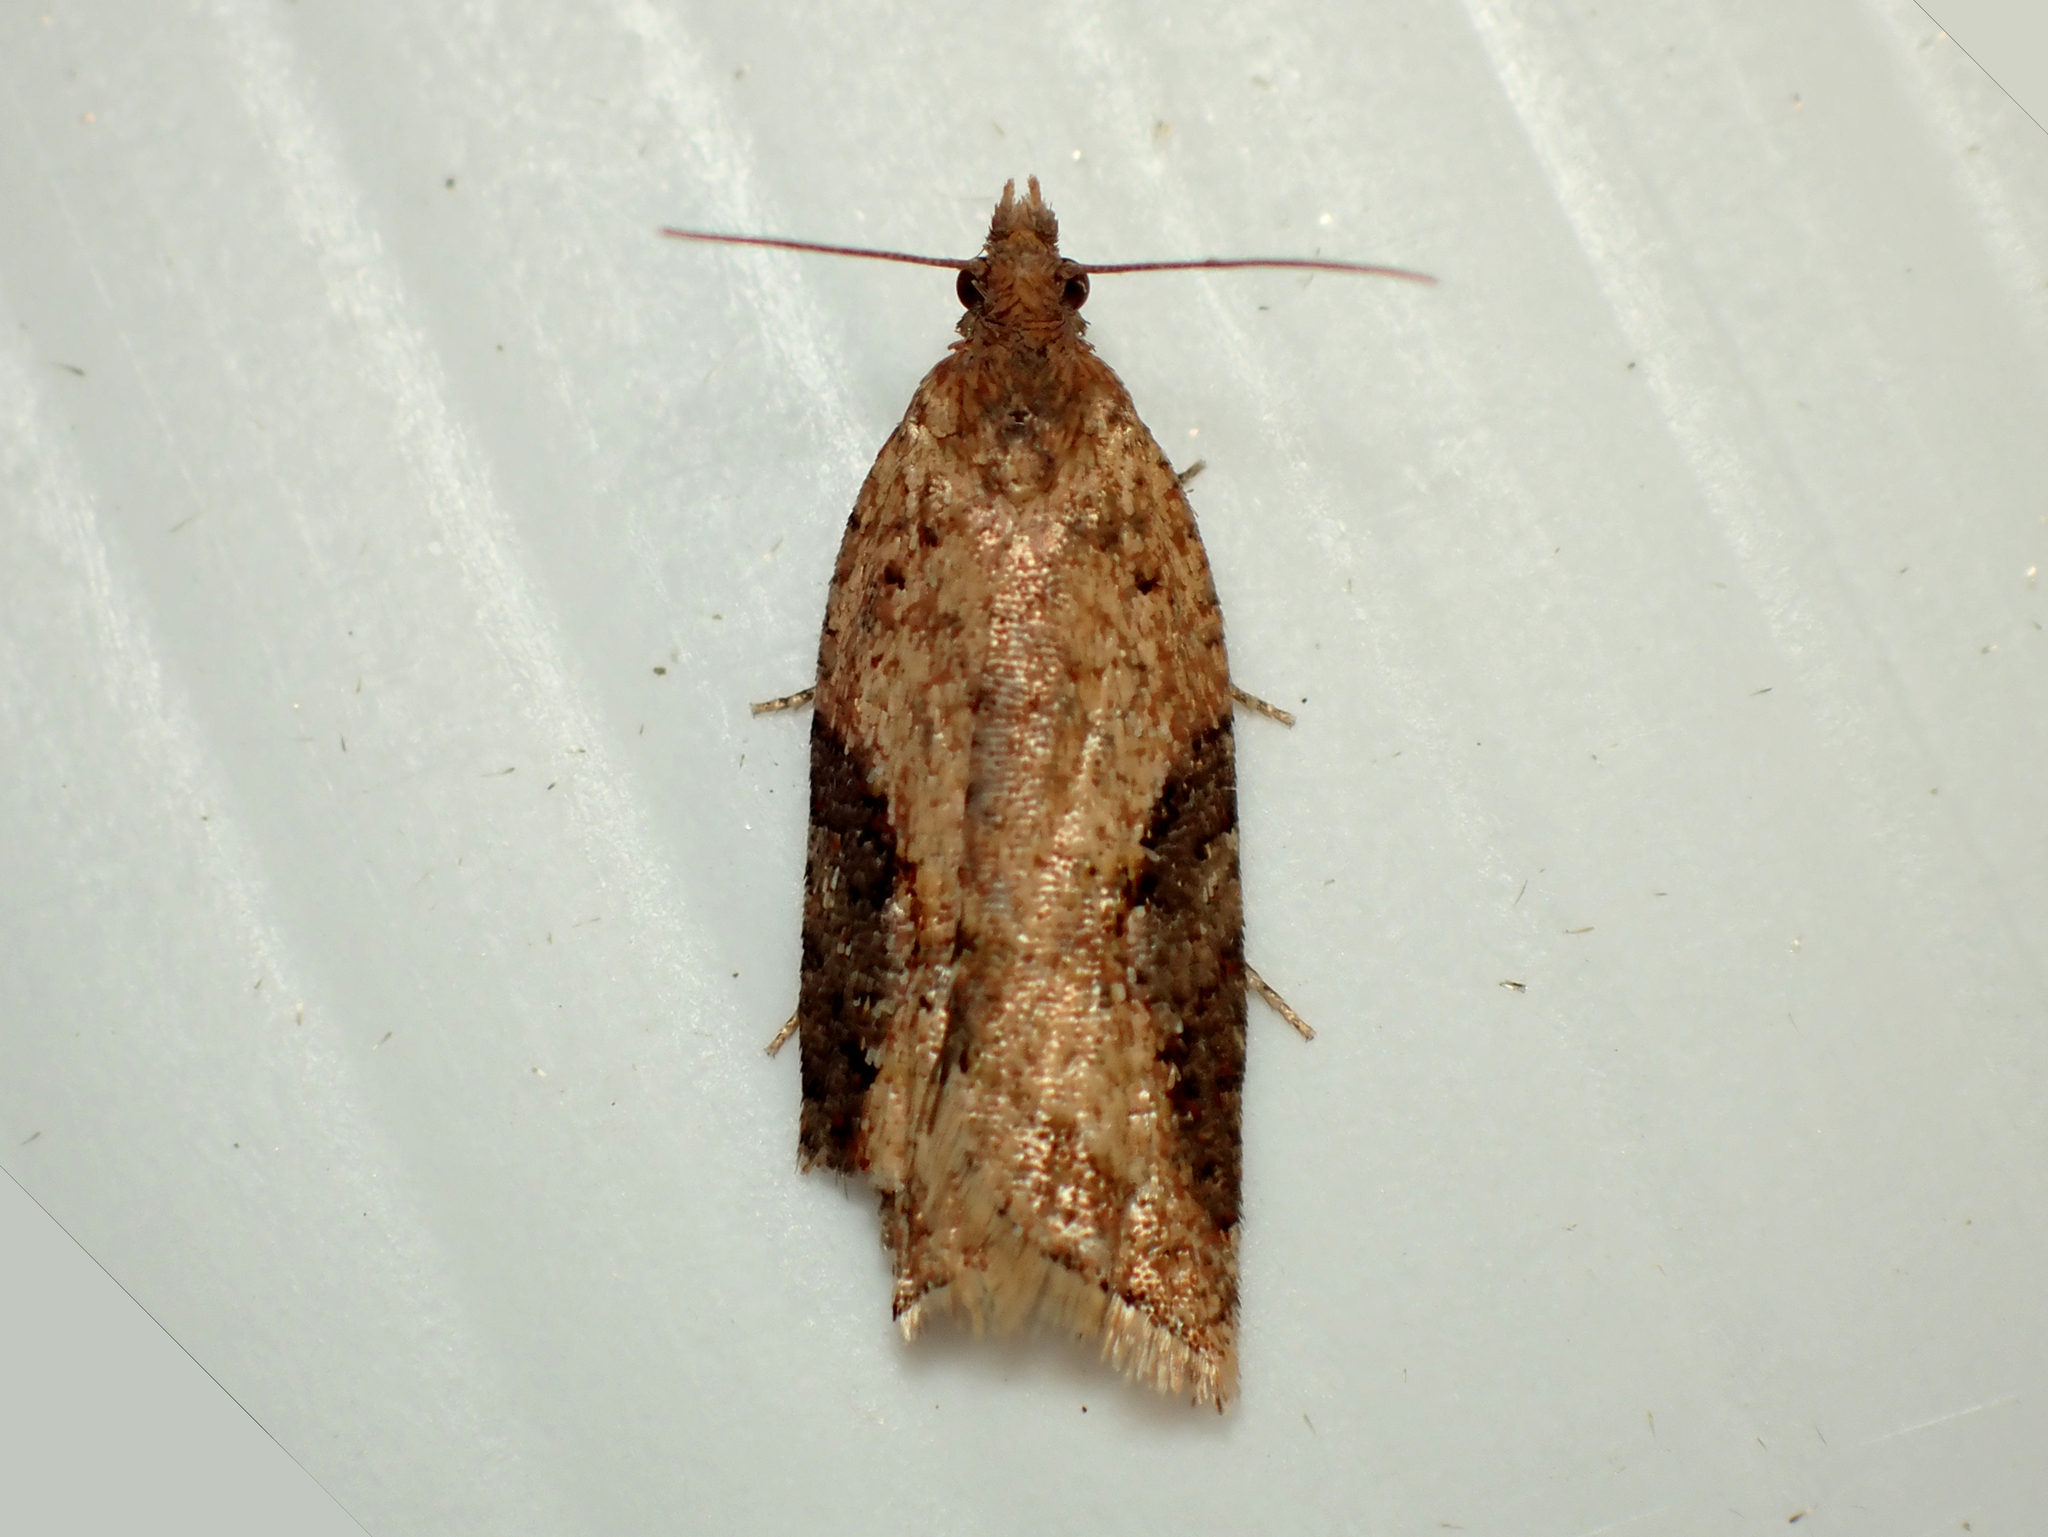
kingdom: Animalia
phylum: Arthropoda
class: Insecta
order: Lepidoptera
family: Tortricidae
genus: Capua
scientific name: Capua semiferana
